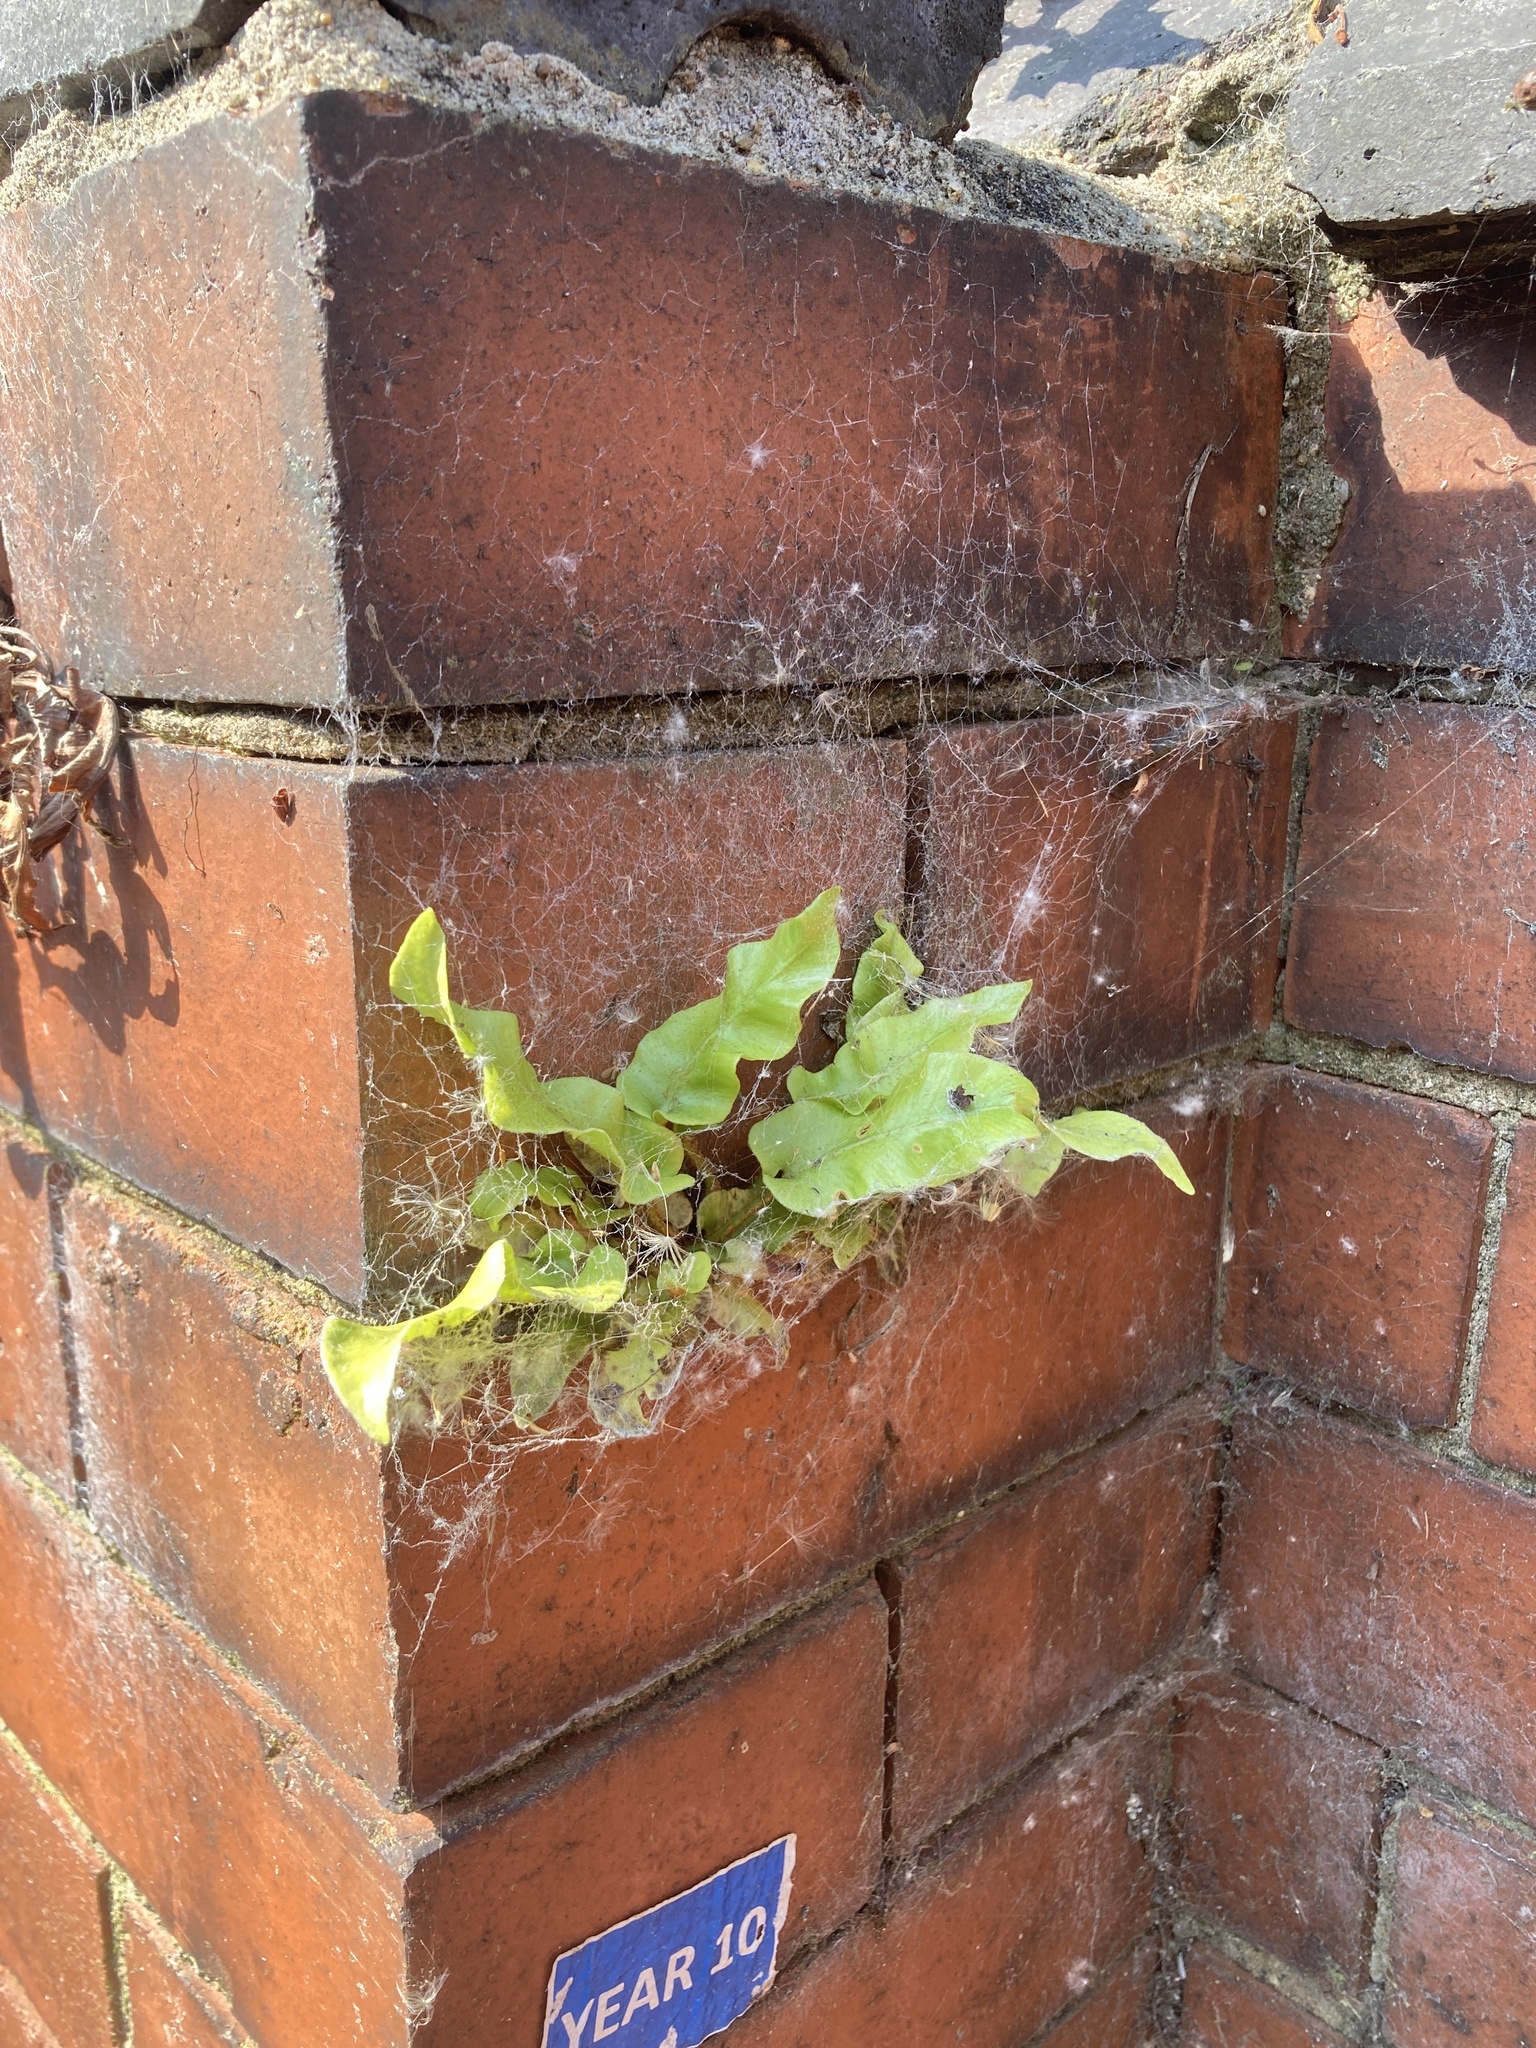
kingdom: Plantae
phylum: Tracheophyta
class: Polypodiopsida
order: Polypodiales
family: Aspleniaceae
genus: Asplenium
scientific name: Asplenium scolopendrium
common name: Hart's-tongue fern
